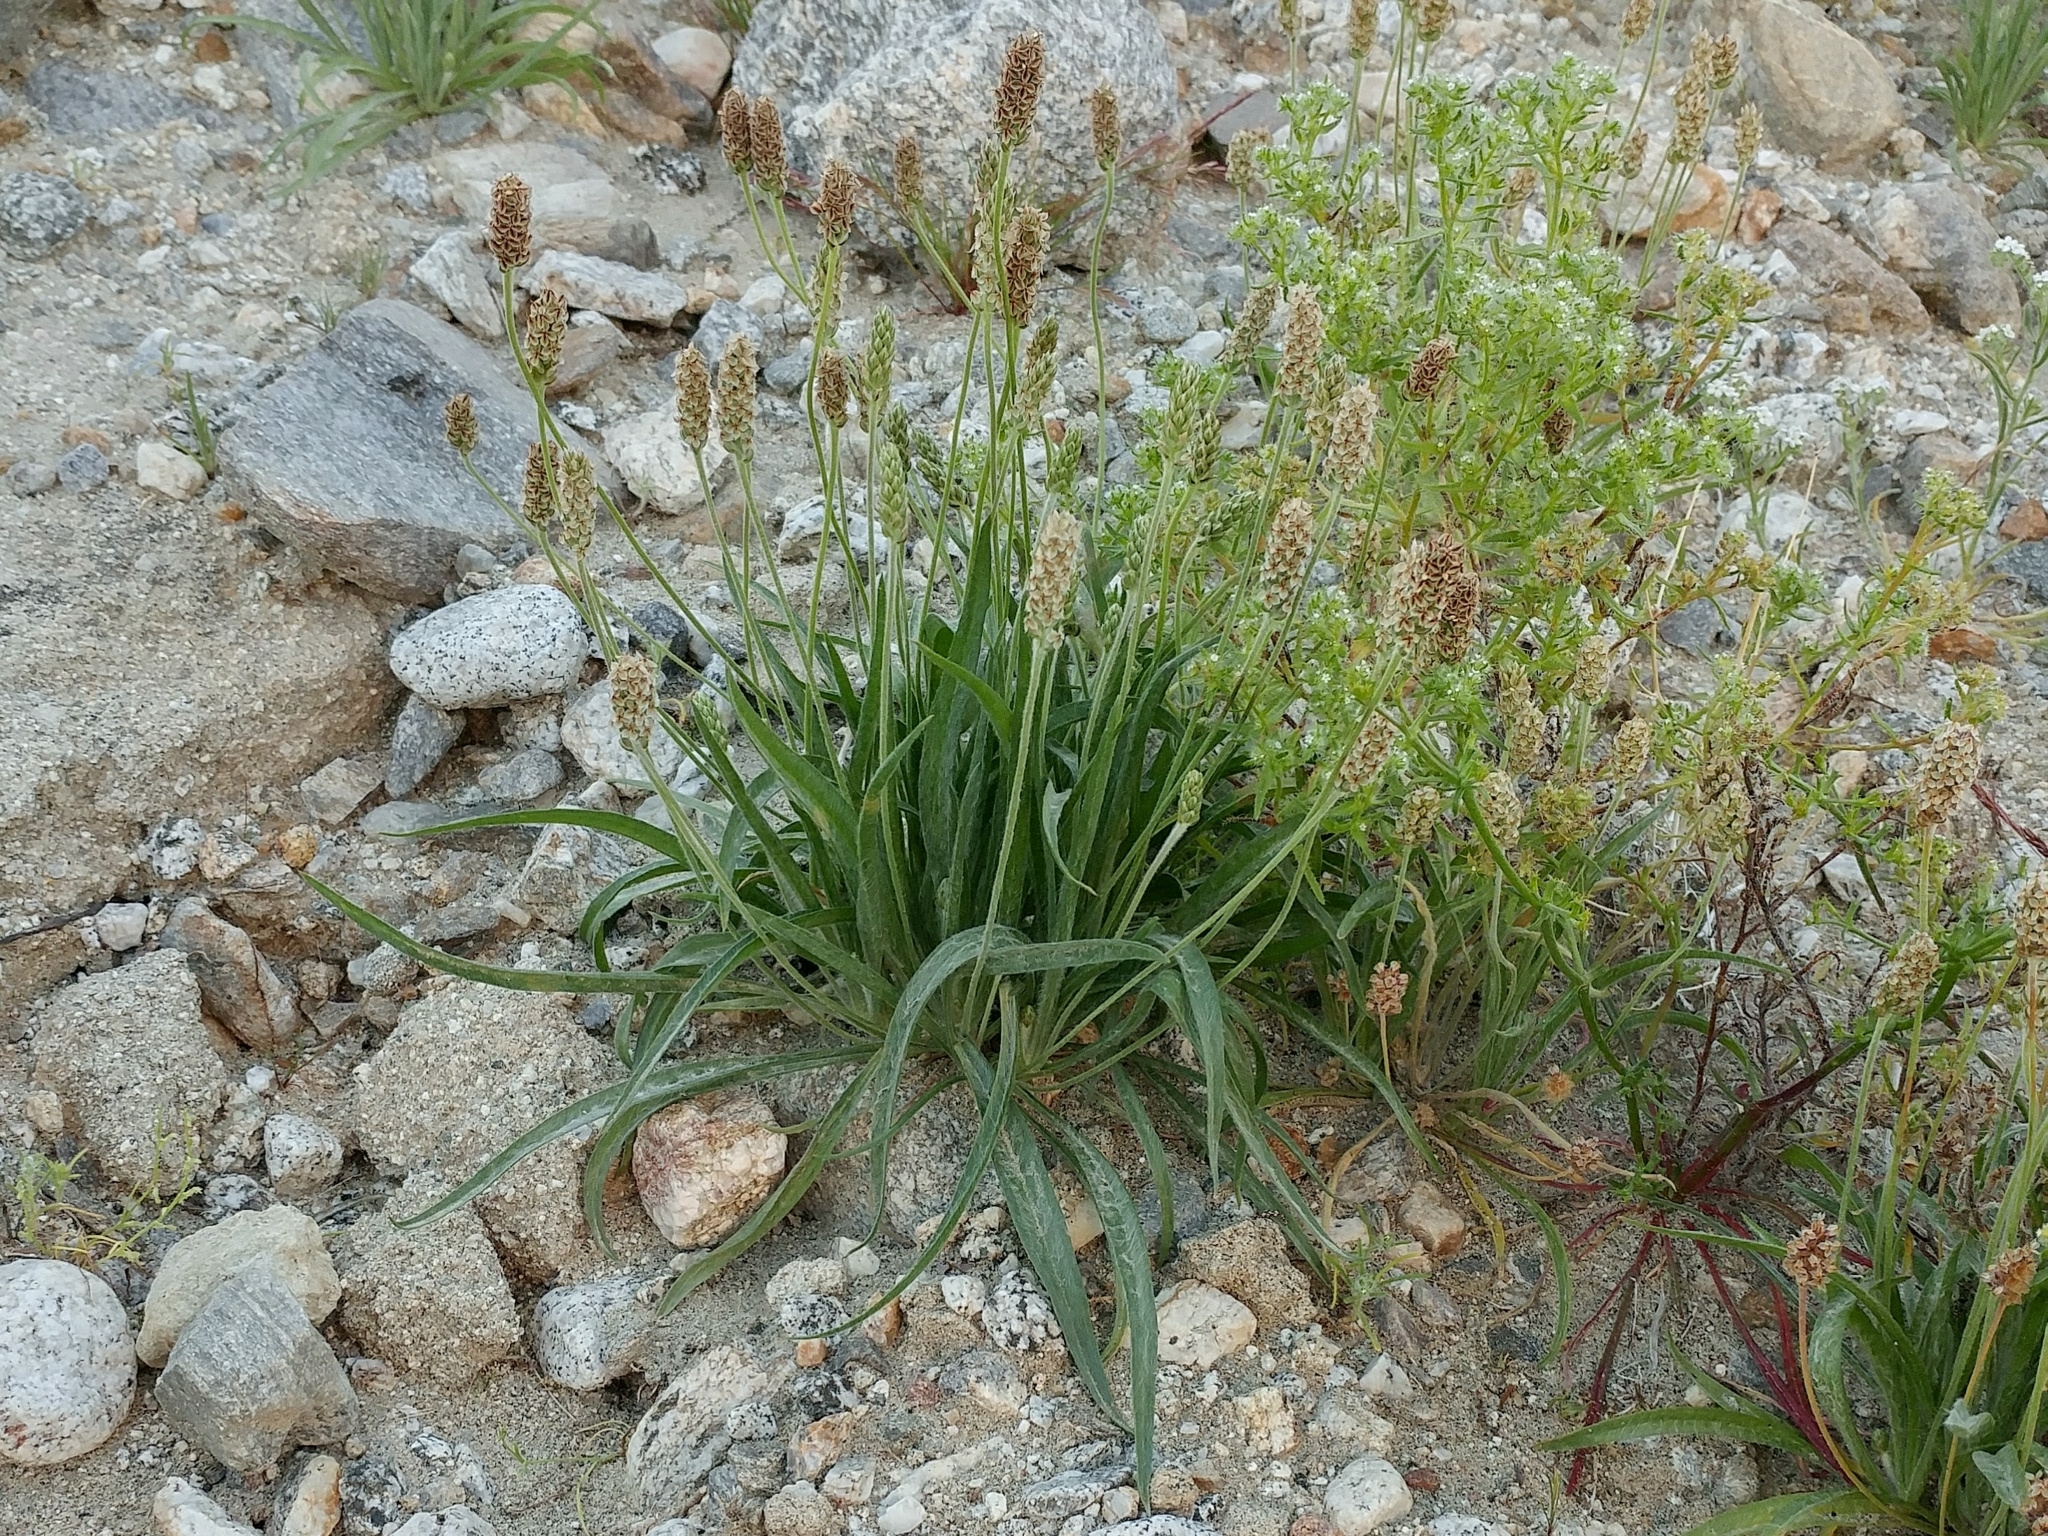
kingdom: Plantae
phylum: Tracheophyta
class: Magnoliopsida
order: Lamiales
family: Plantaginaceae
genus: Plantago
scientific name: Plantago ovata
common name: Blond plantain
